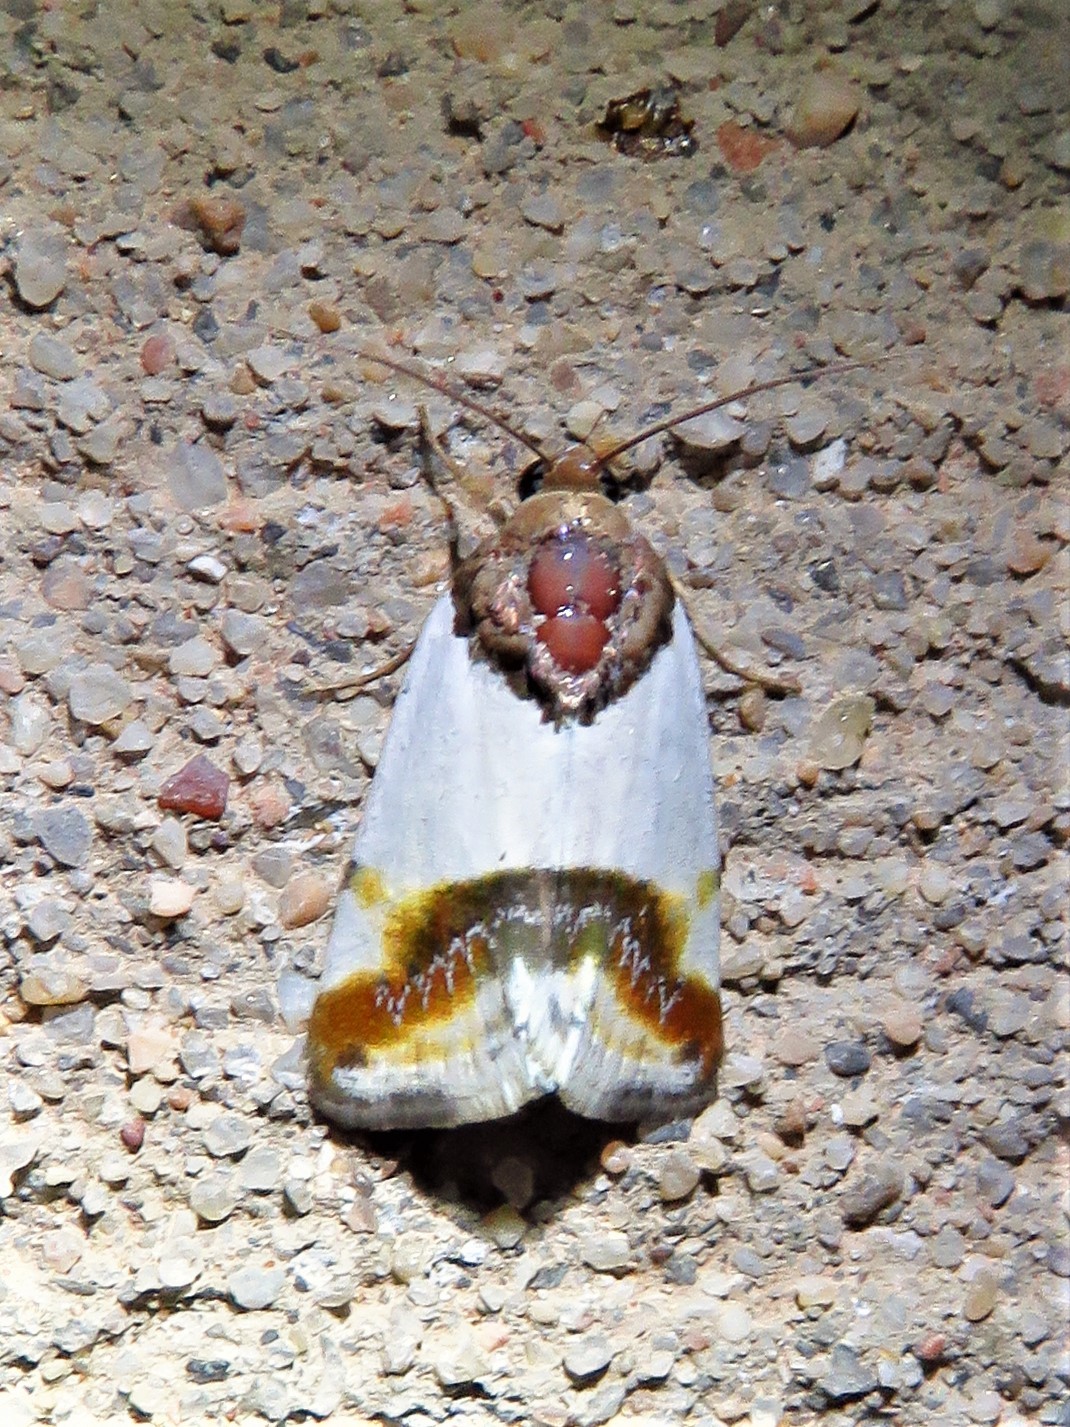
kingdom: Animalia
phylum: Arthropoda
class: Insecta
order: Lepidoptera
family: Noctuidae
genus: Acontia
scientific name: Acontia Tarache lactipennis
